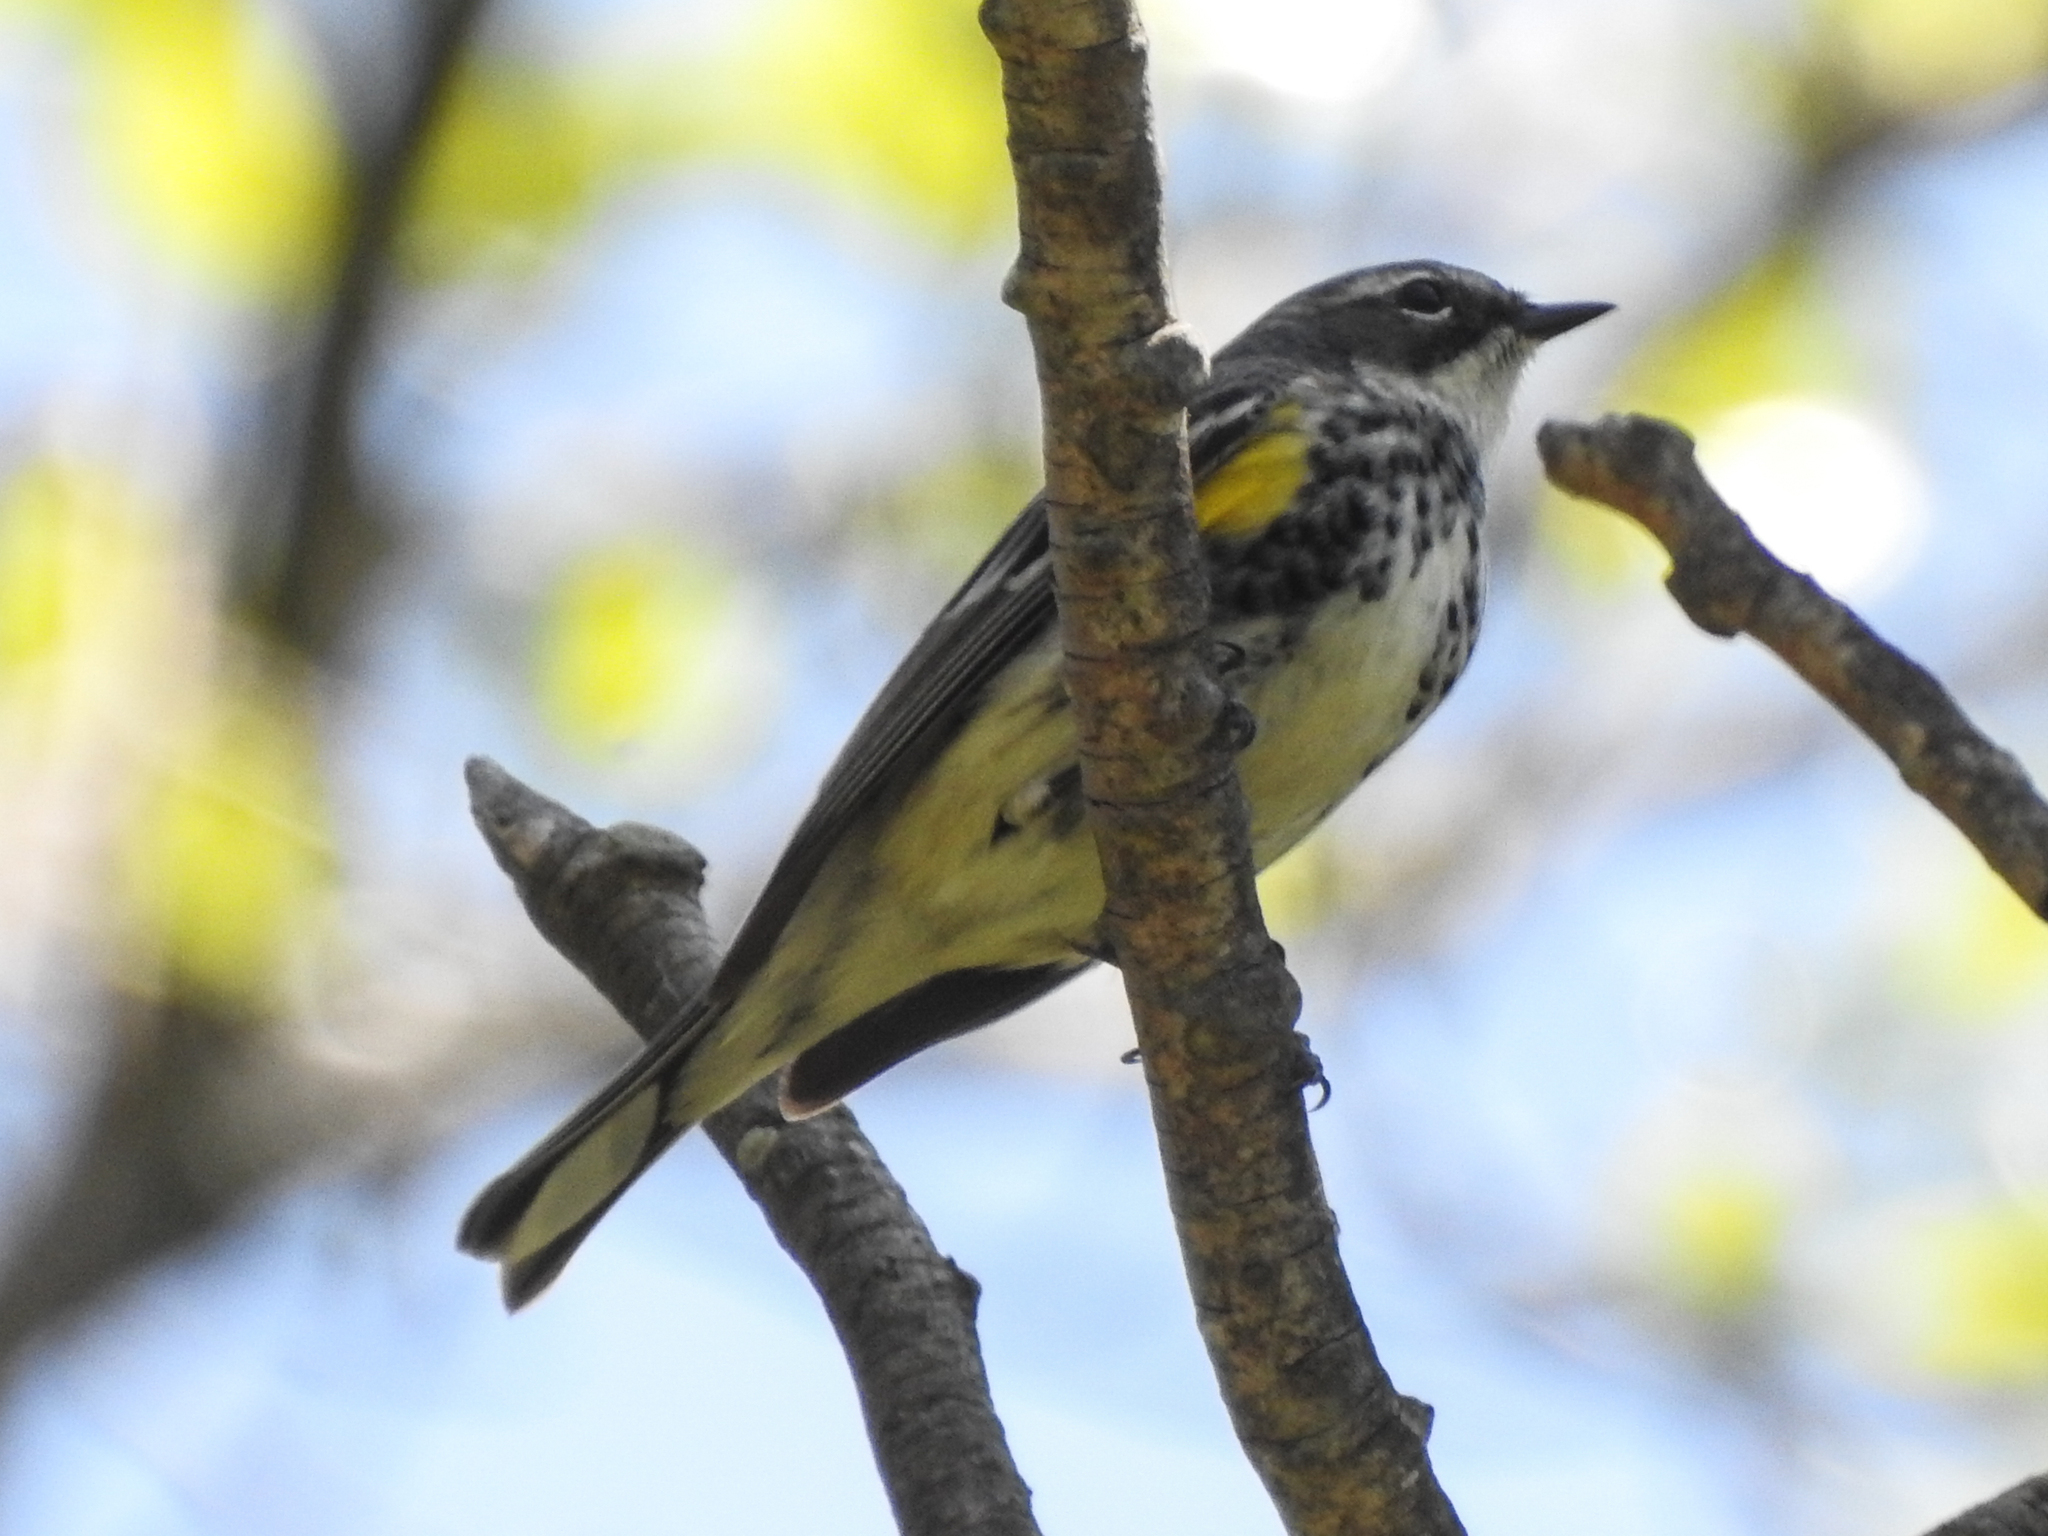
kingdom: Animalia
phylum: Chordata
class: Aves
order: Passeriformes
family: Parulidae
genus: Setophaga
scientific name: Setophaga coronata
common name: Myrtle warbler
